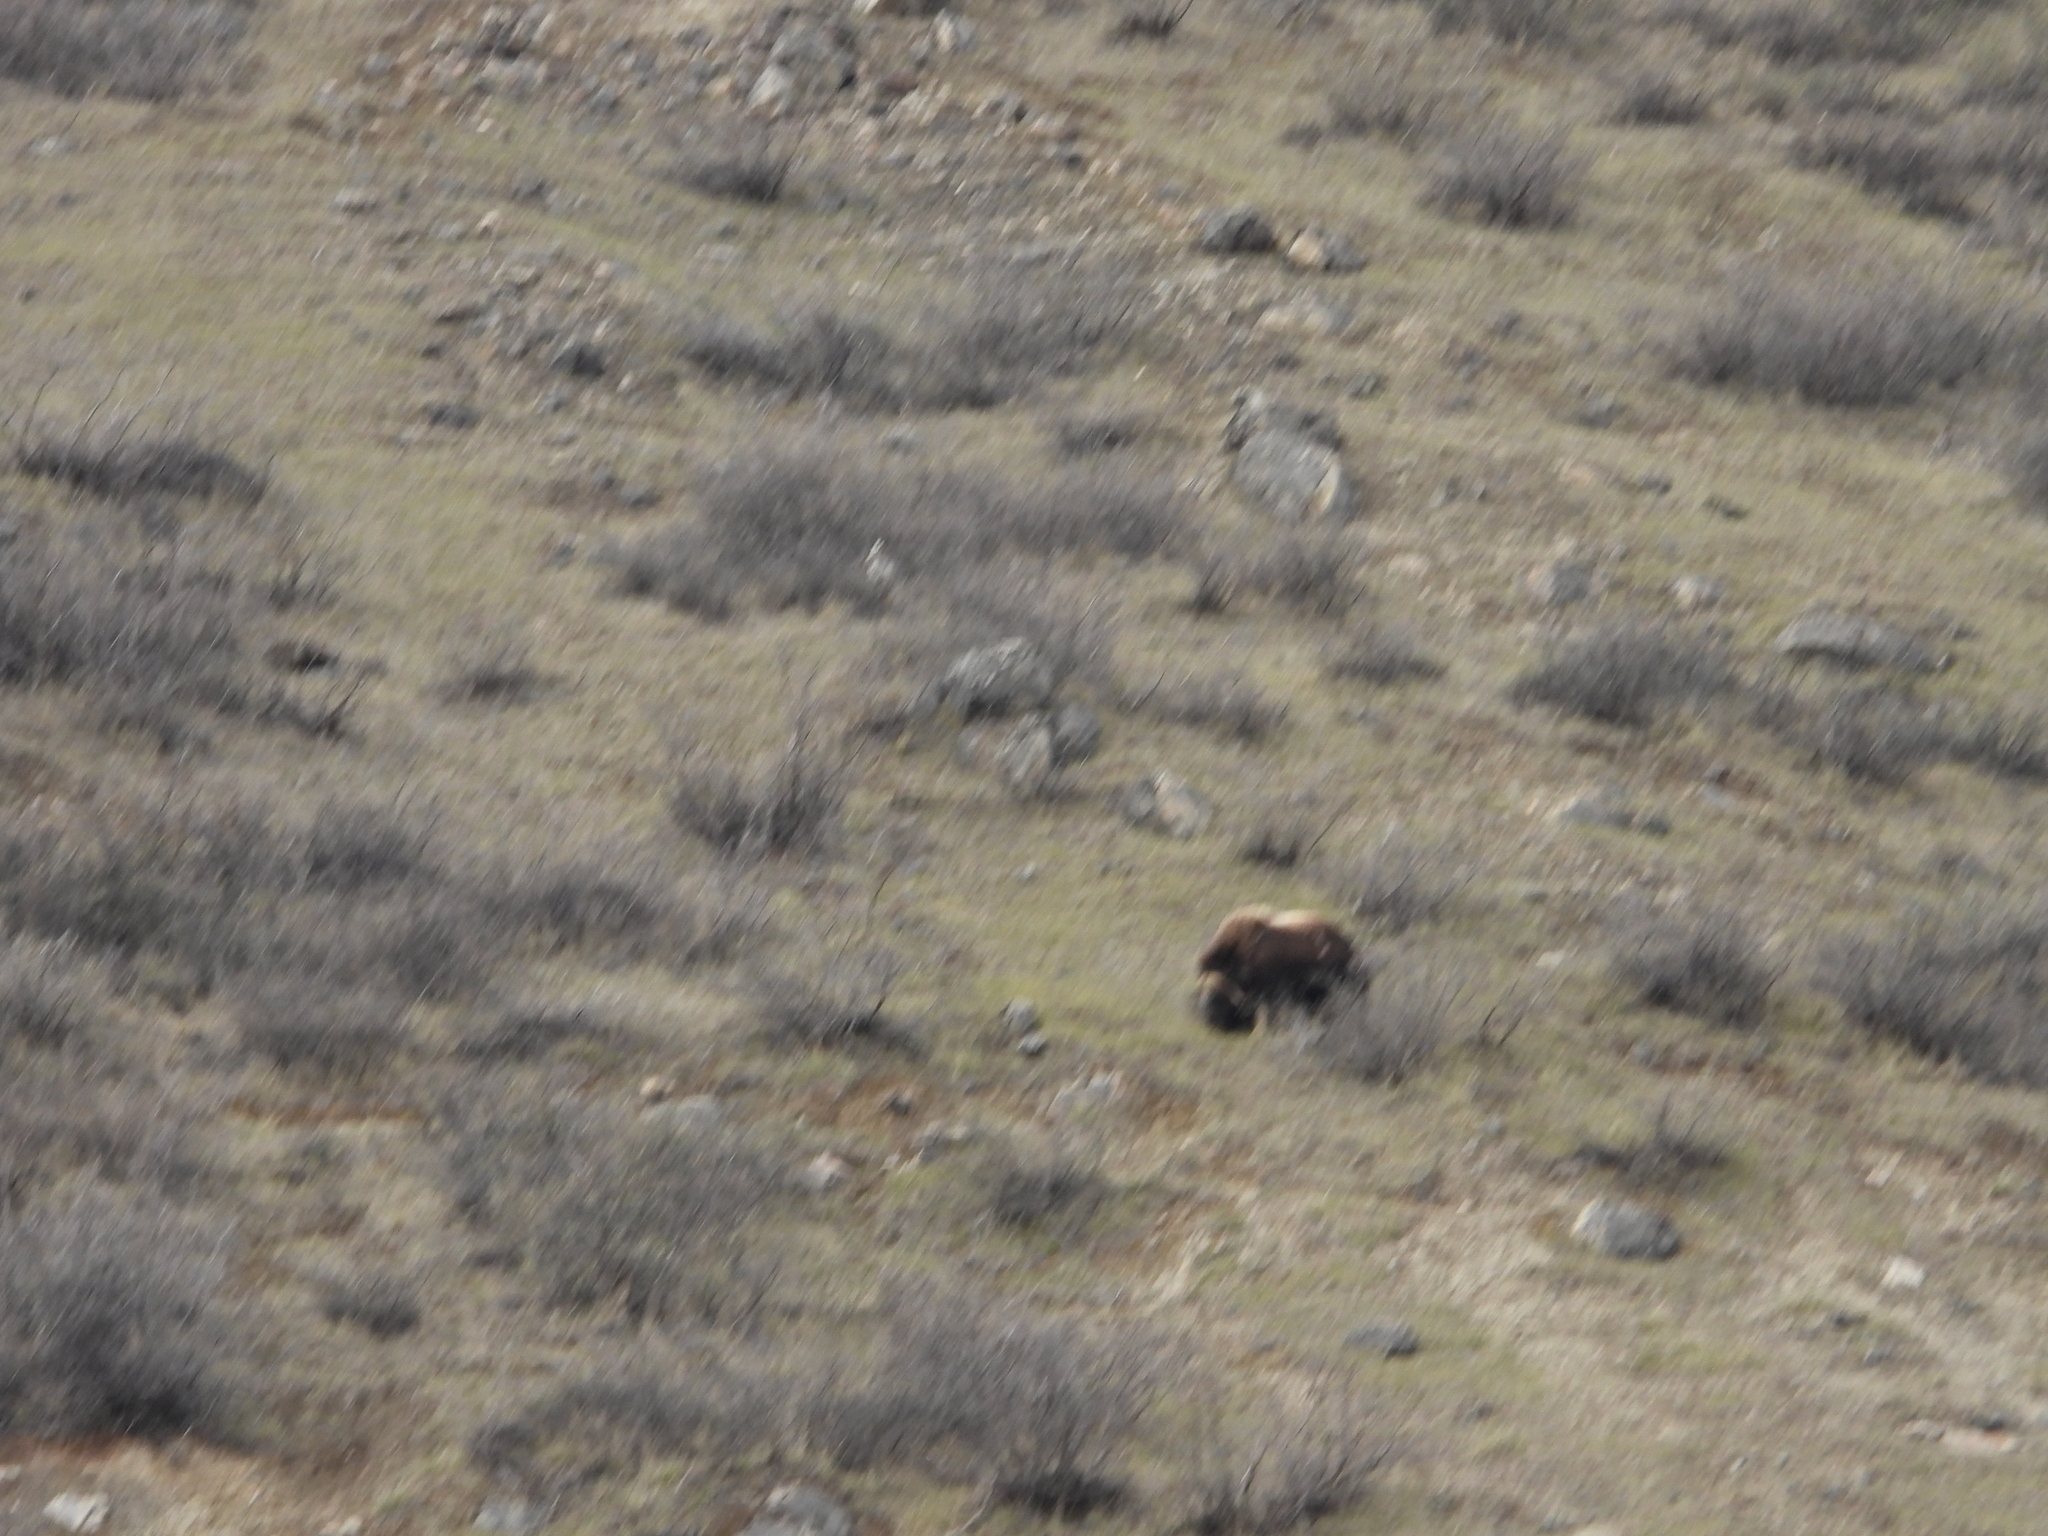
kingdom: Animalia
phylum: Chordata
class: Mammalia
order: Artiodactyla
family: Bovidae
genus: Ovibos
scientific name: Ovibos moschatus
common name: Muskox
